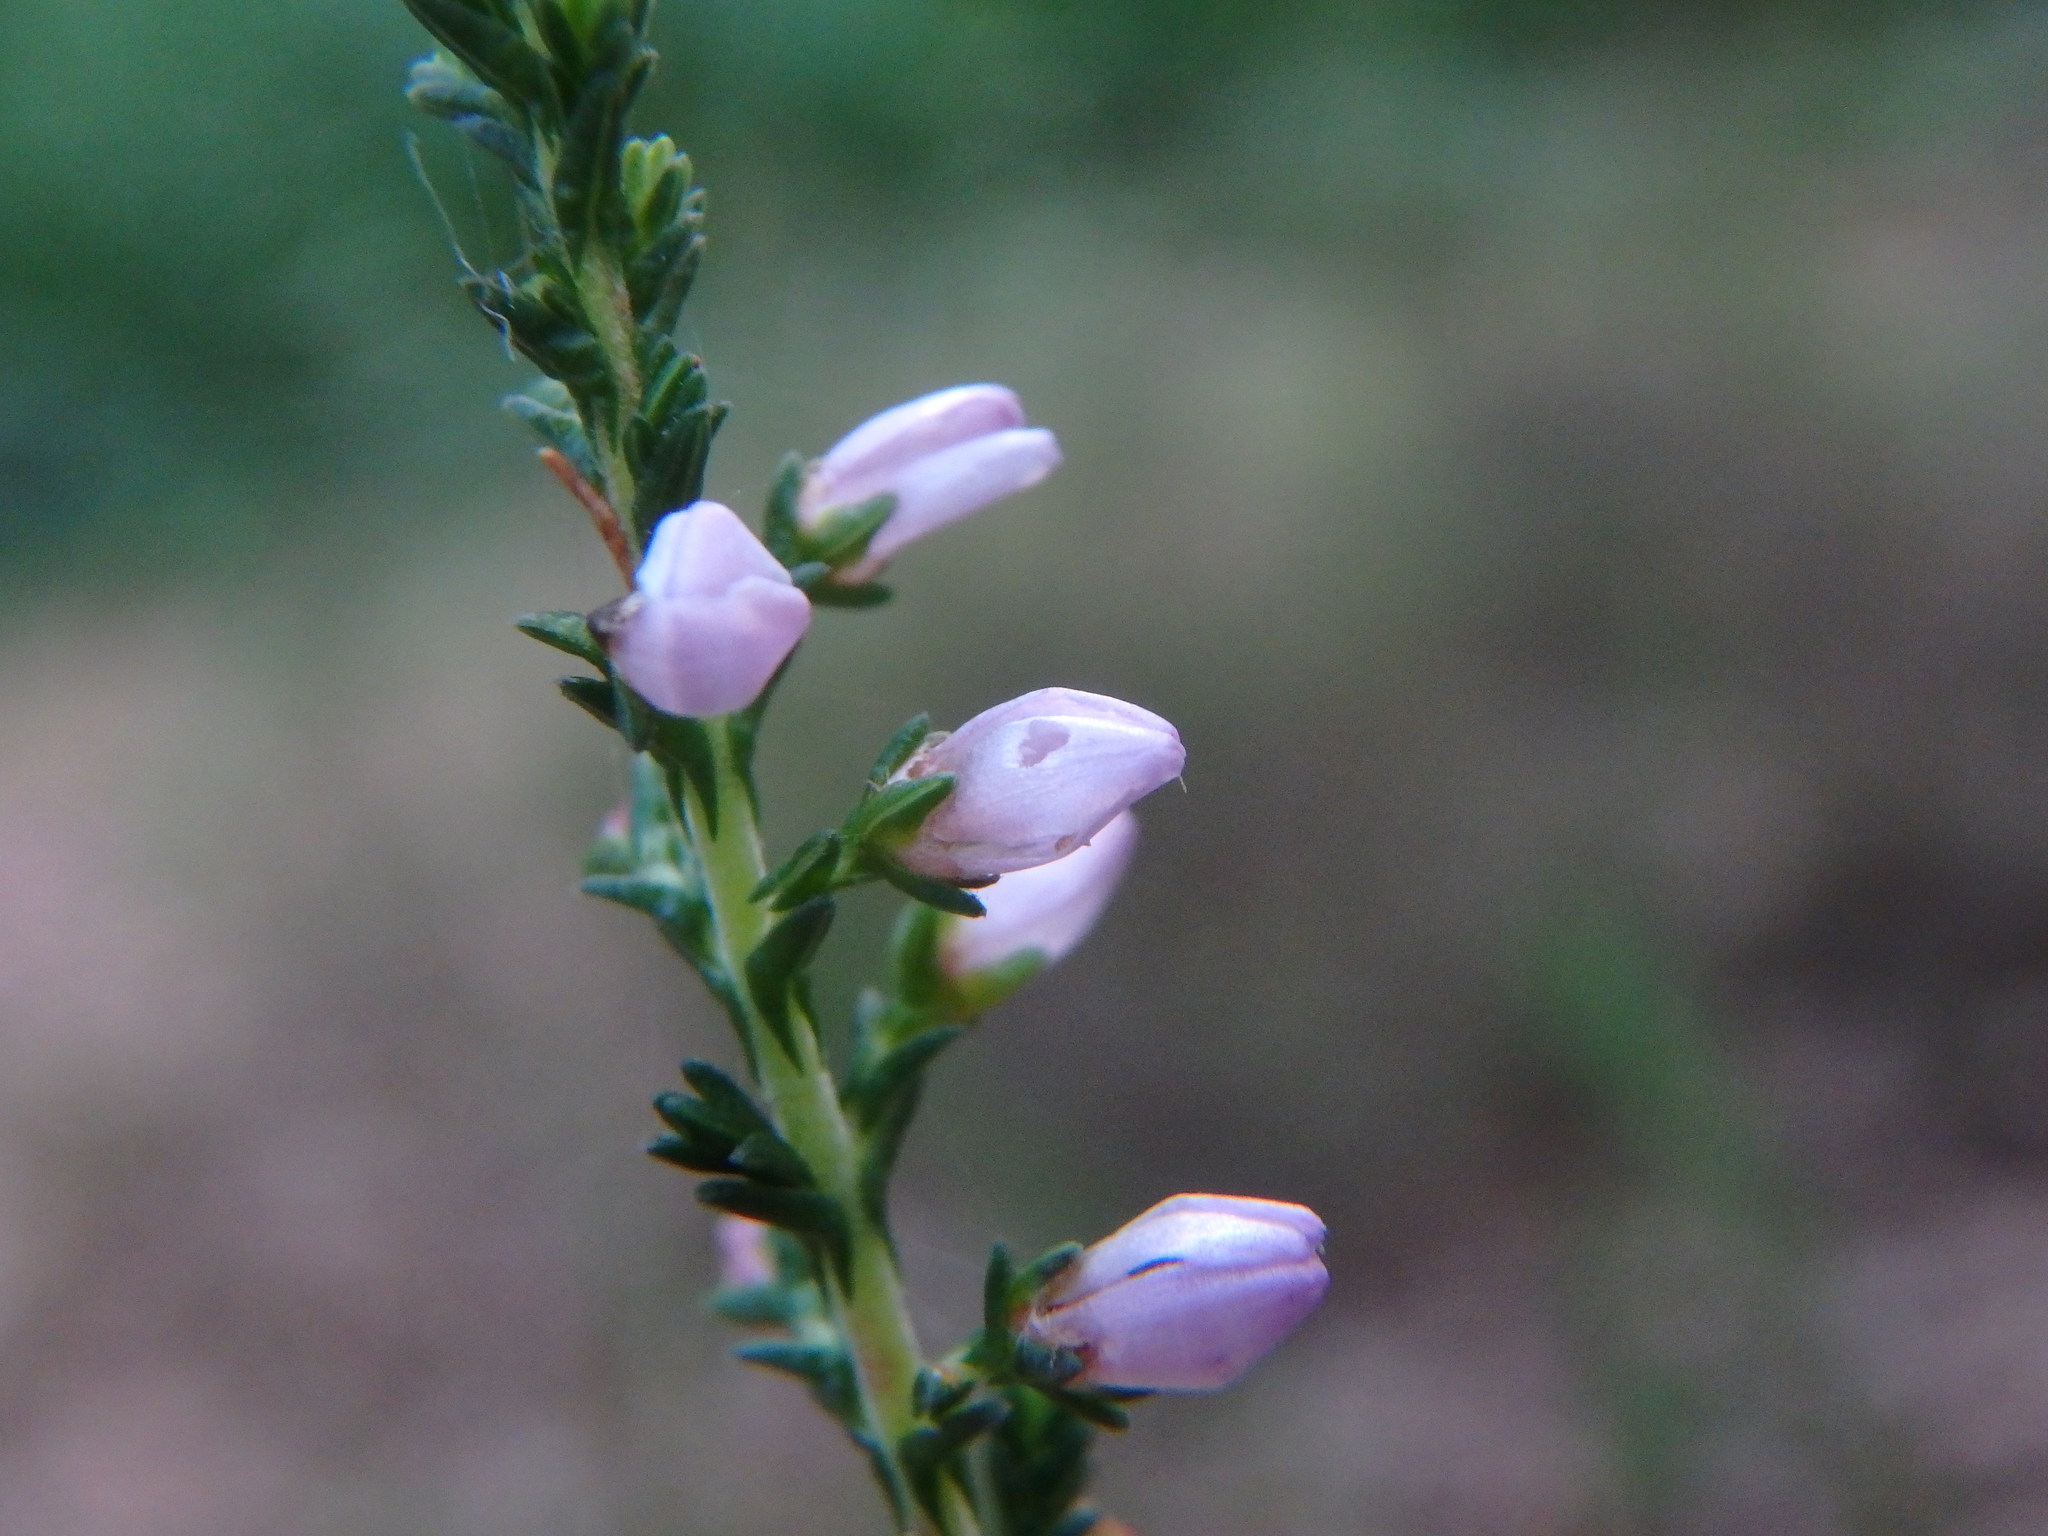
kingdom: Plantae
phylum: Tracheophyta
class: Magnoliopsida
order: Ericales
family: Ericaceae
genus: Calluna
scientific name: Calluna vulgaris
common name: Heather
